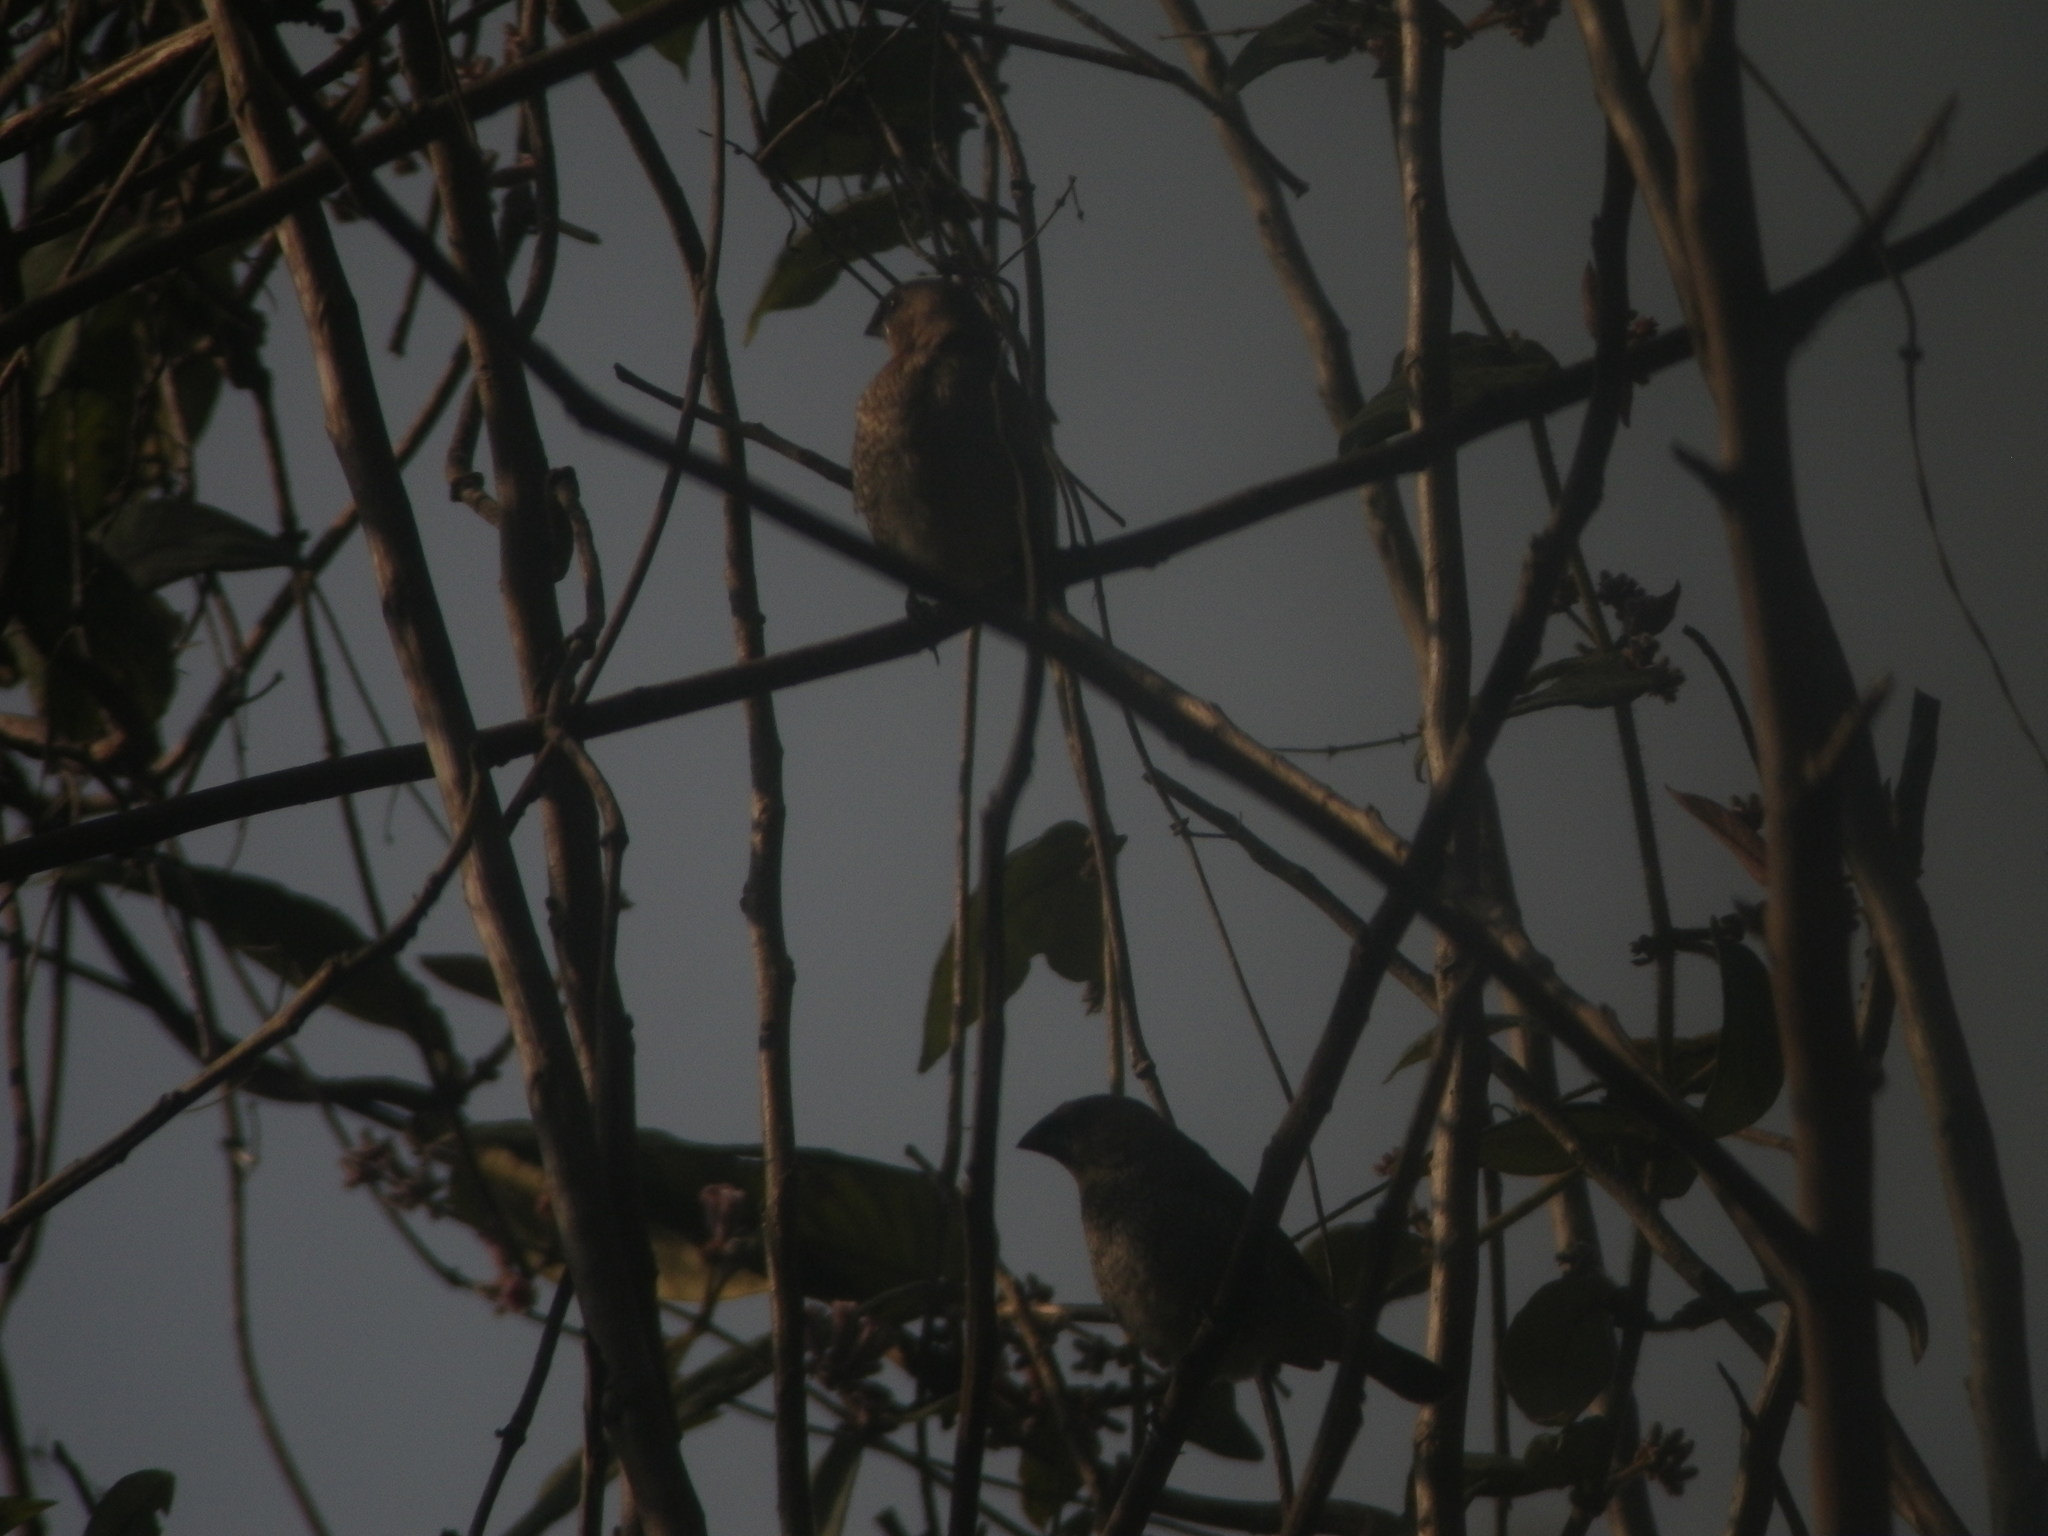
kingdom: Animalia
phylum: Chordata
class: Aves
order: Passeriformes
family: Estrildidae
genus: Lonchura
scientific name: Lonchura punctulata
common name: Scaly-breasted munia
